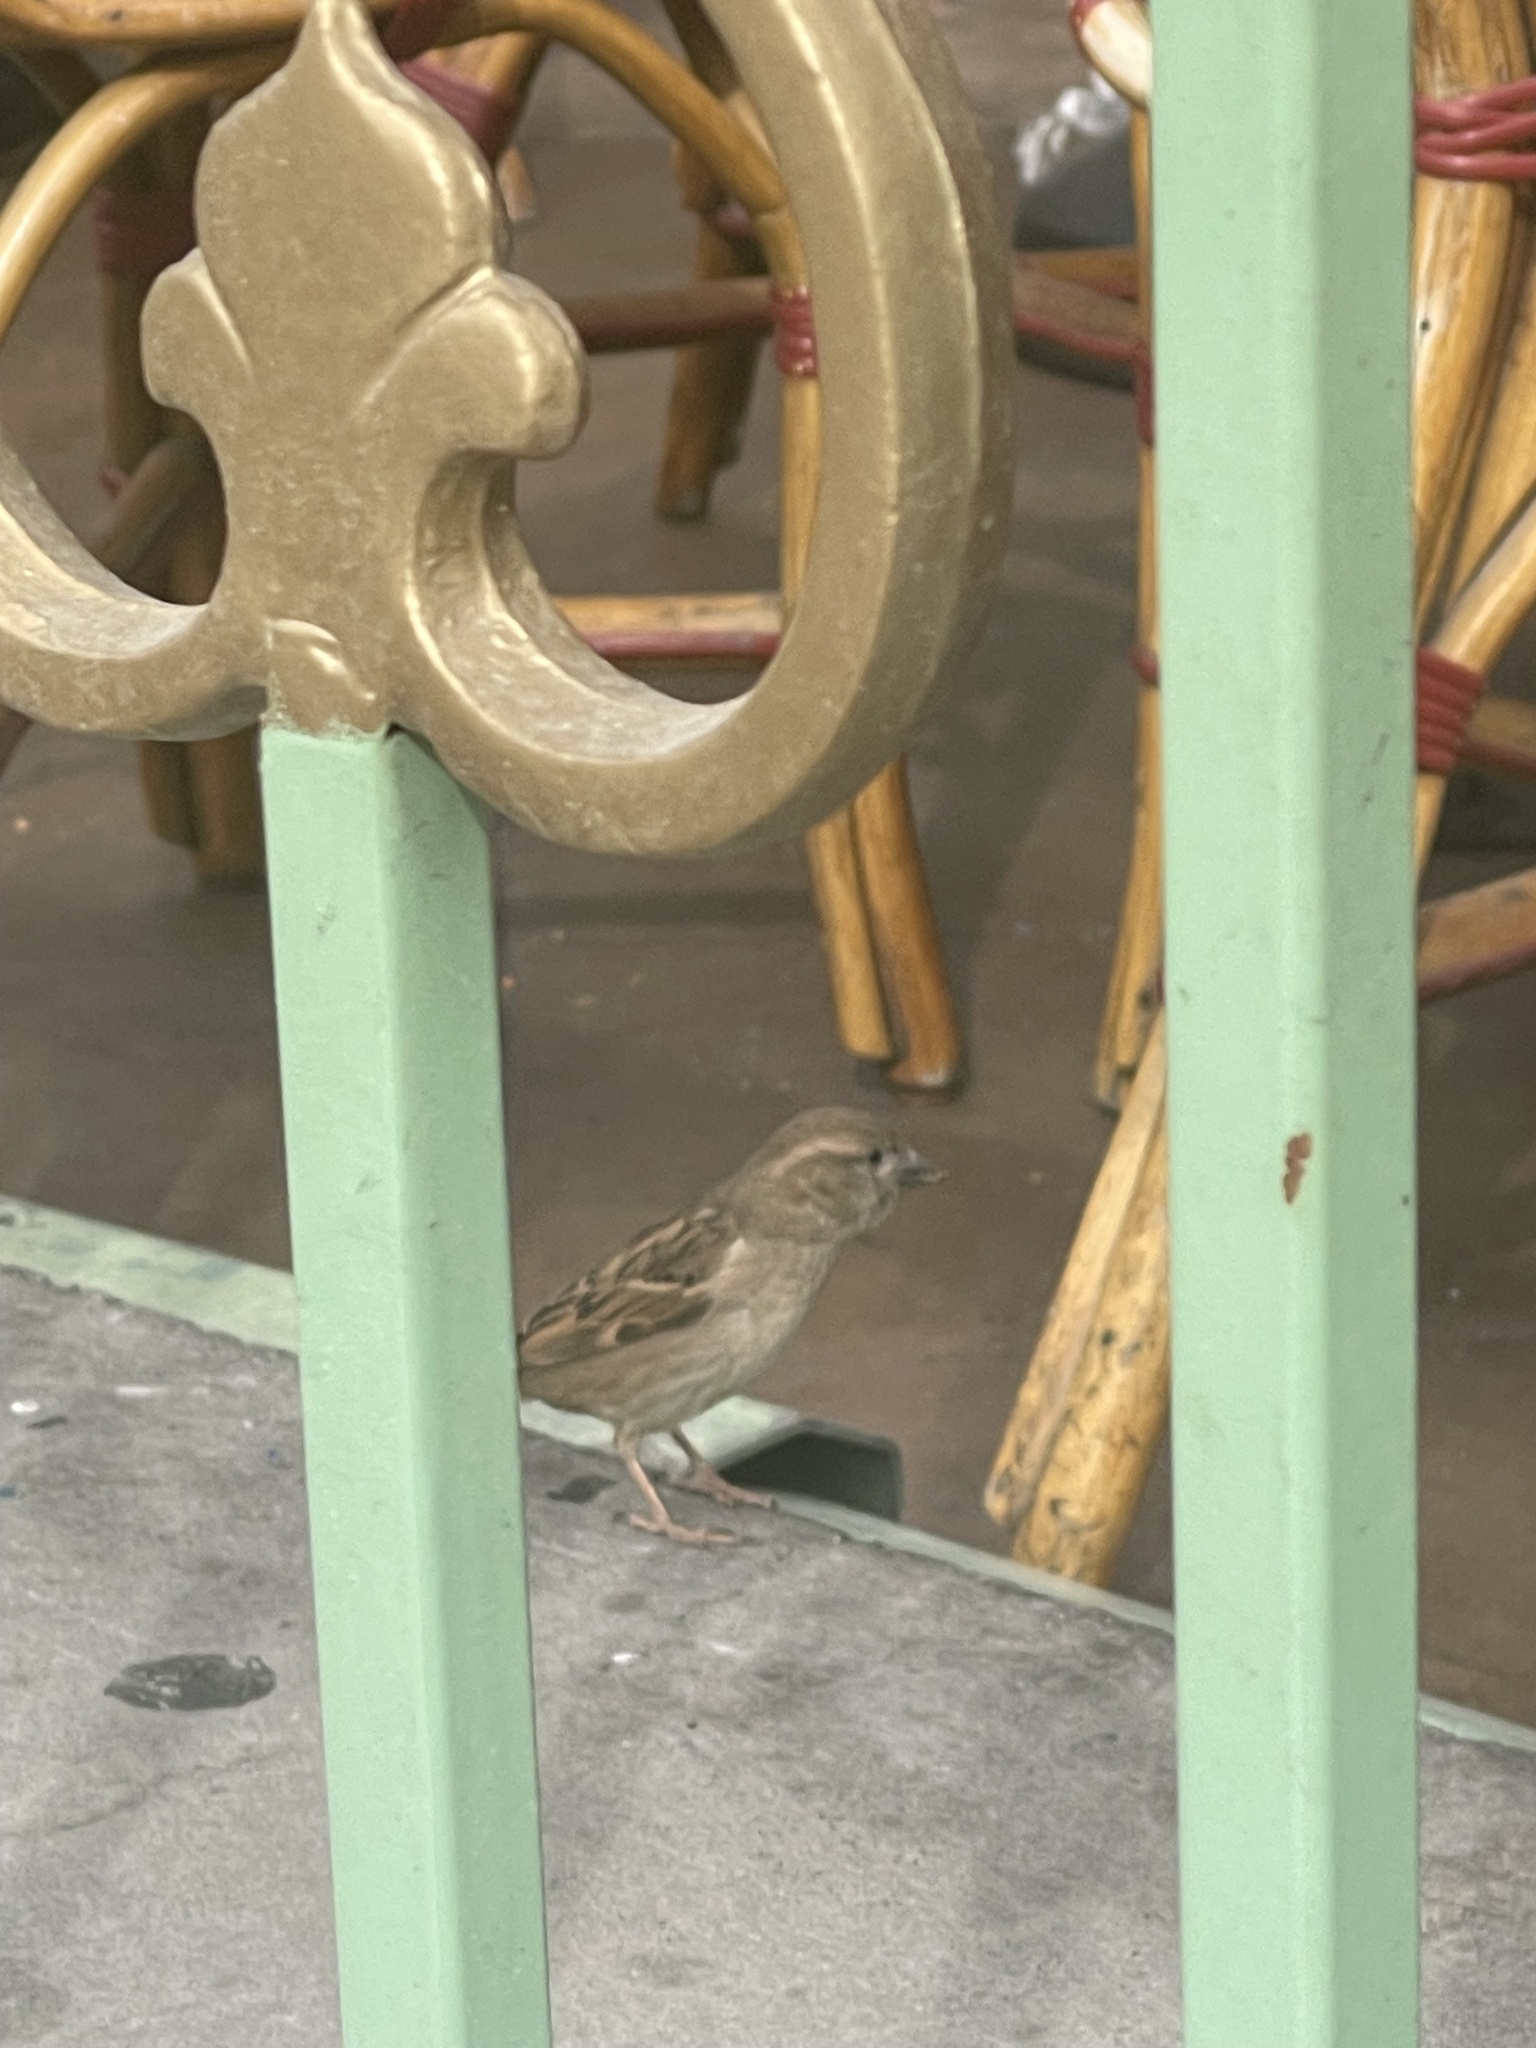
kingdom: Animalia
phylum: Chordata
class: Aves
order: Passeriformes
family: Passeridae
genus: Passer
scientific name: Passer domesticus
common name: House sparrow
